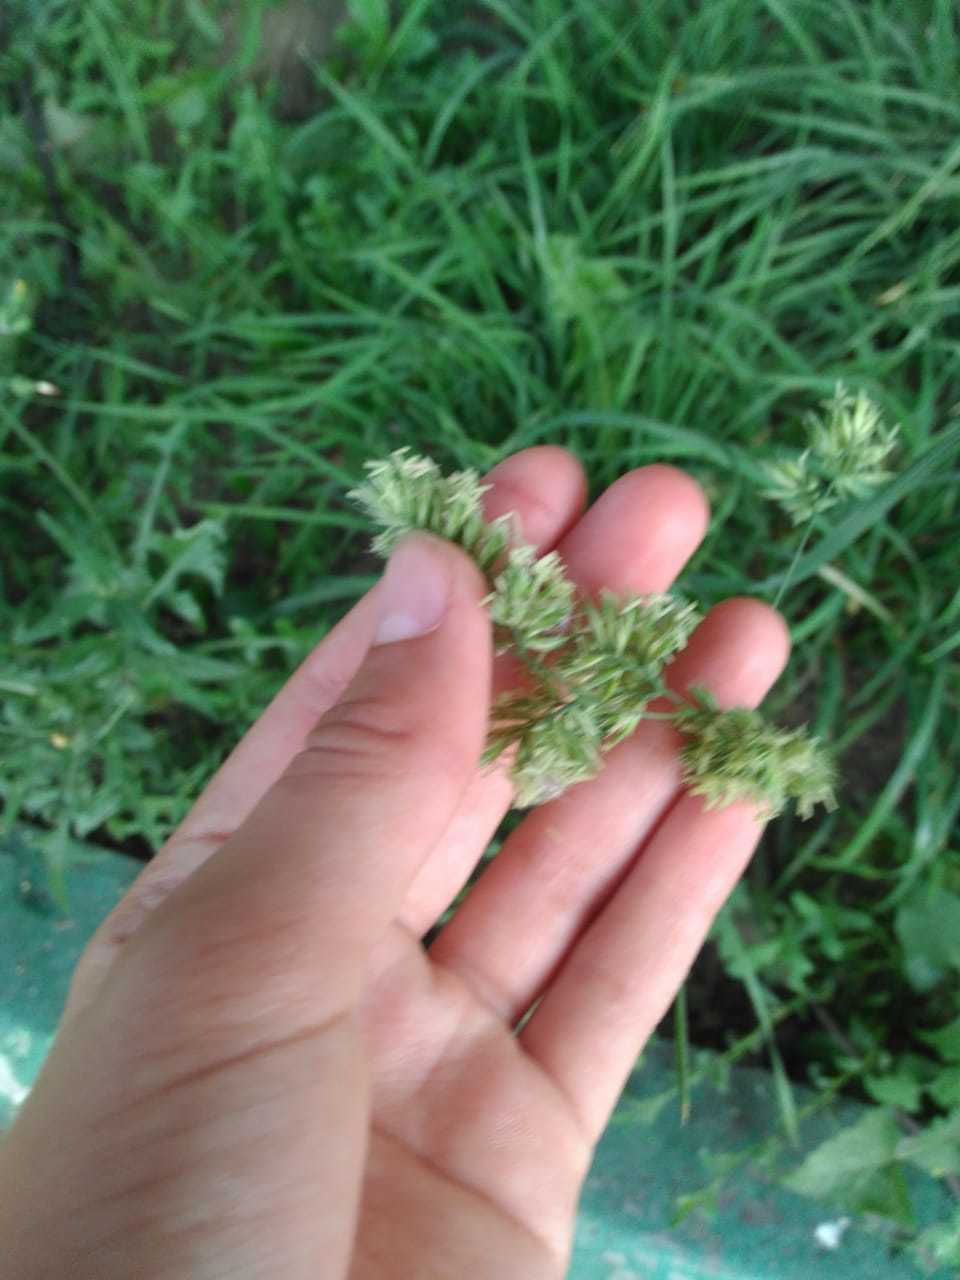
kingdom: Plantae
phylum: Tracheophyta
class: Liliopsida
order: Poales
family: Poaceae
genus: Dactylis
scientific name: Dactylis glomerata
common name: Orchardgrass
